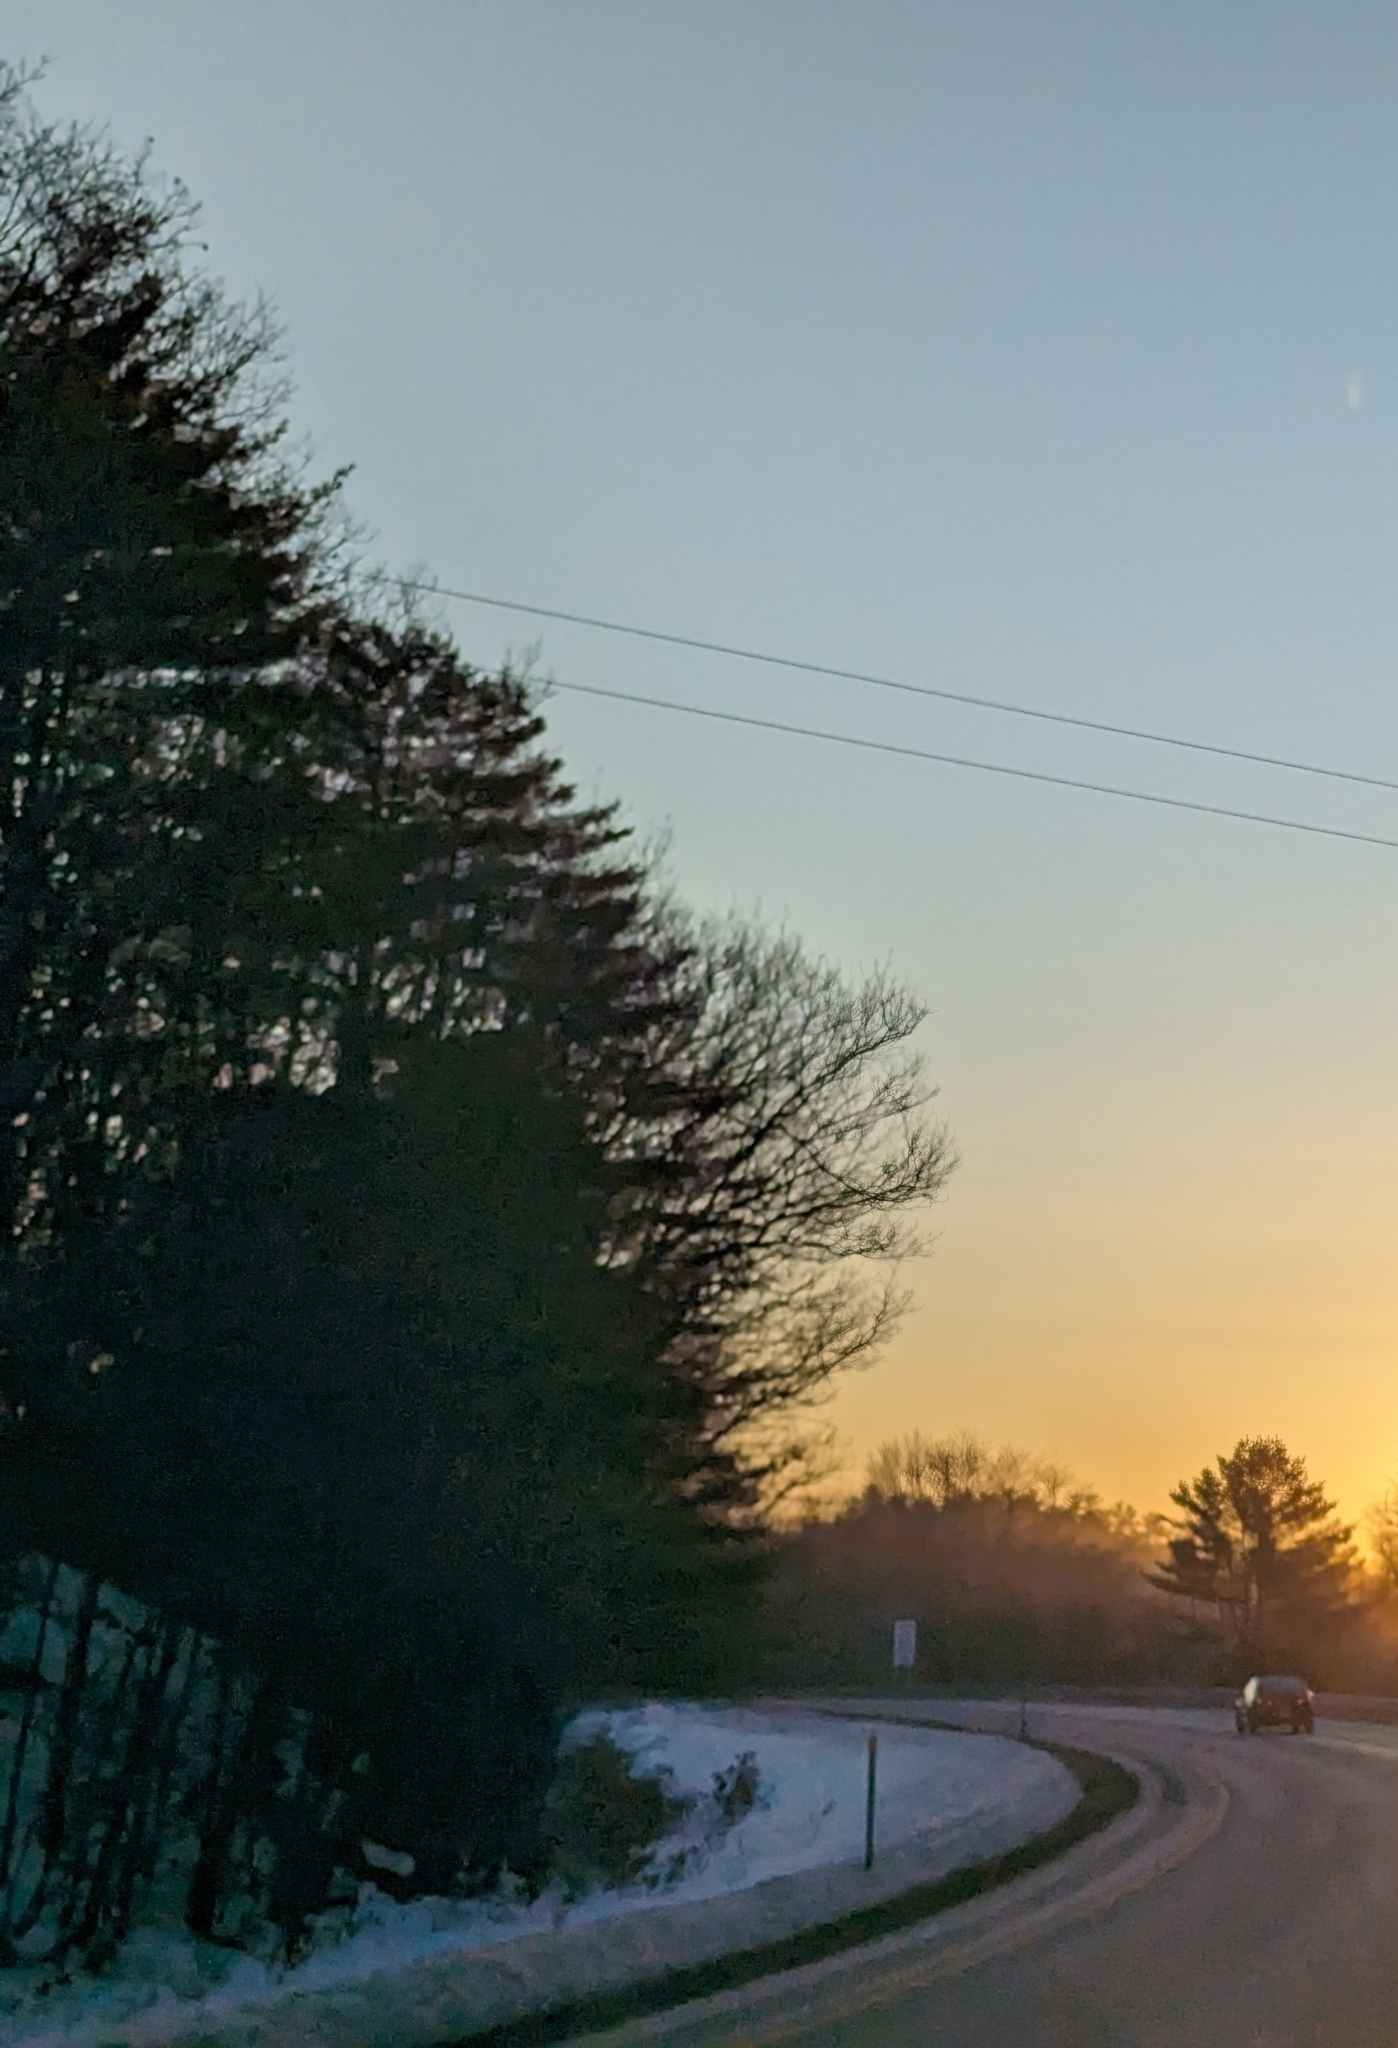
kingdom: Plantae
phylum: Tracheophyta
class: Pinopsida
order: Pinales
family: Pinaceae
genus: Pinus
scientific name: Pinus strobus
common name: Weymouth pine
